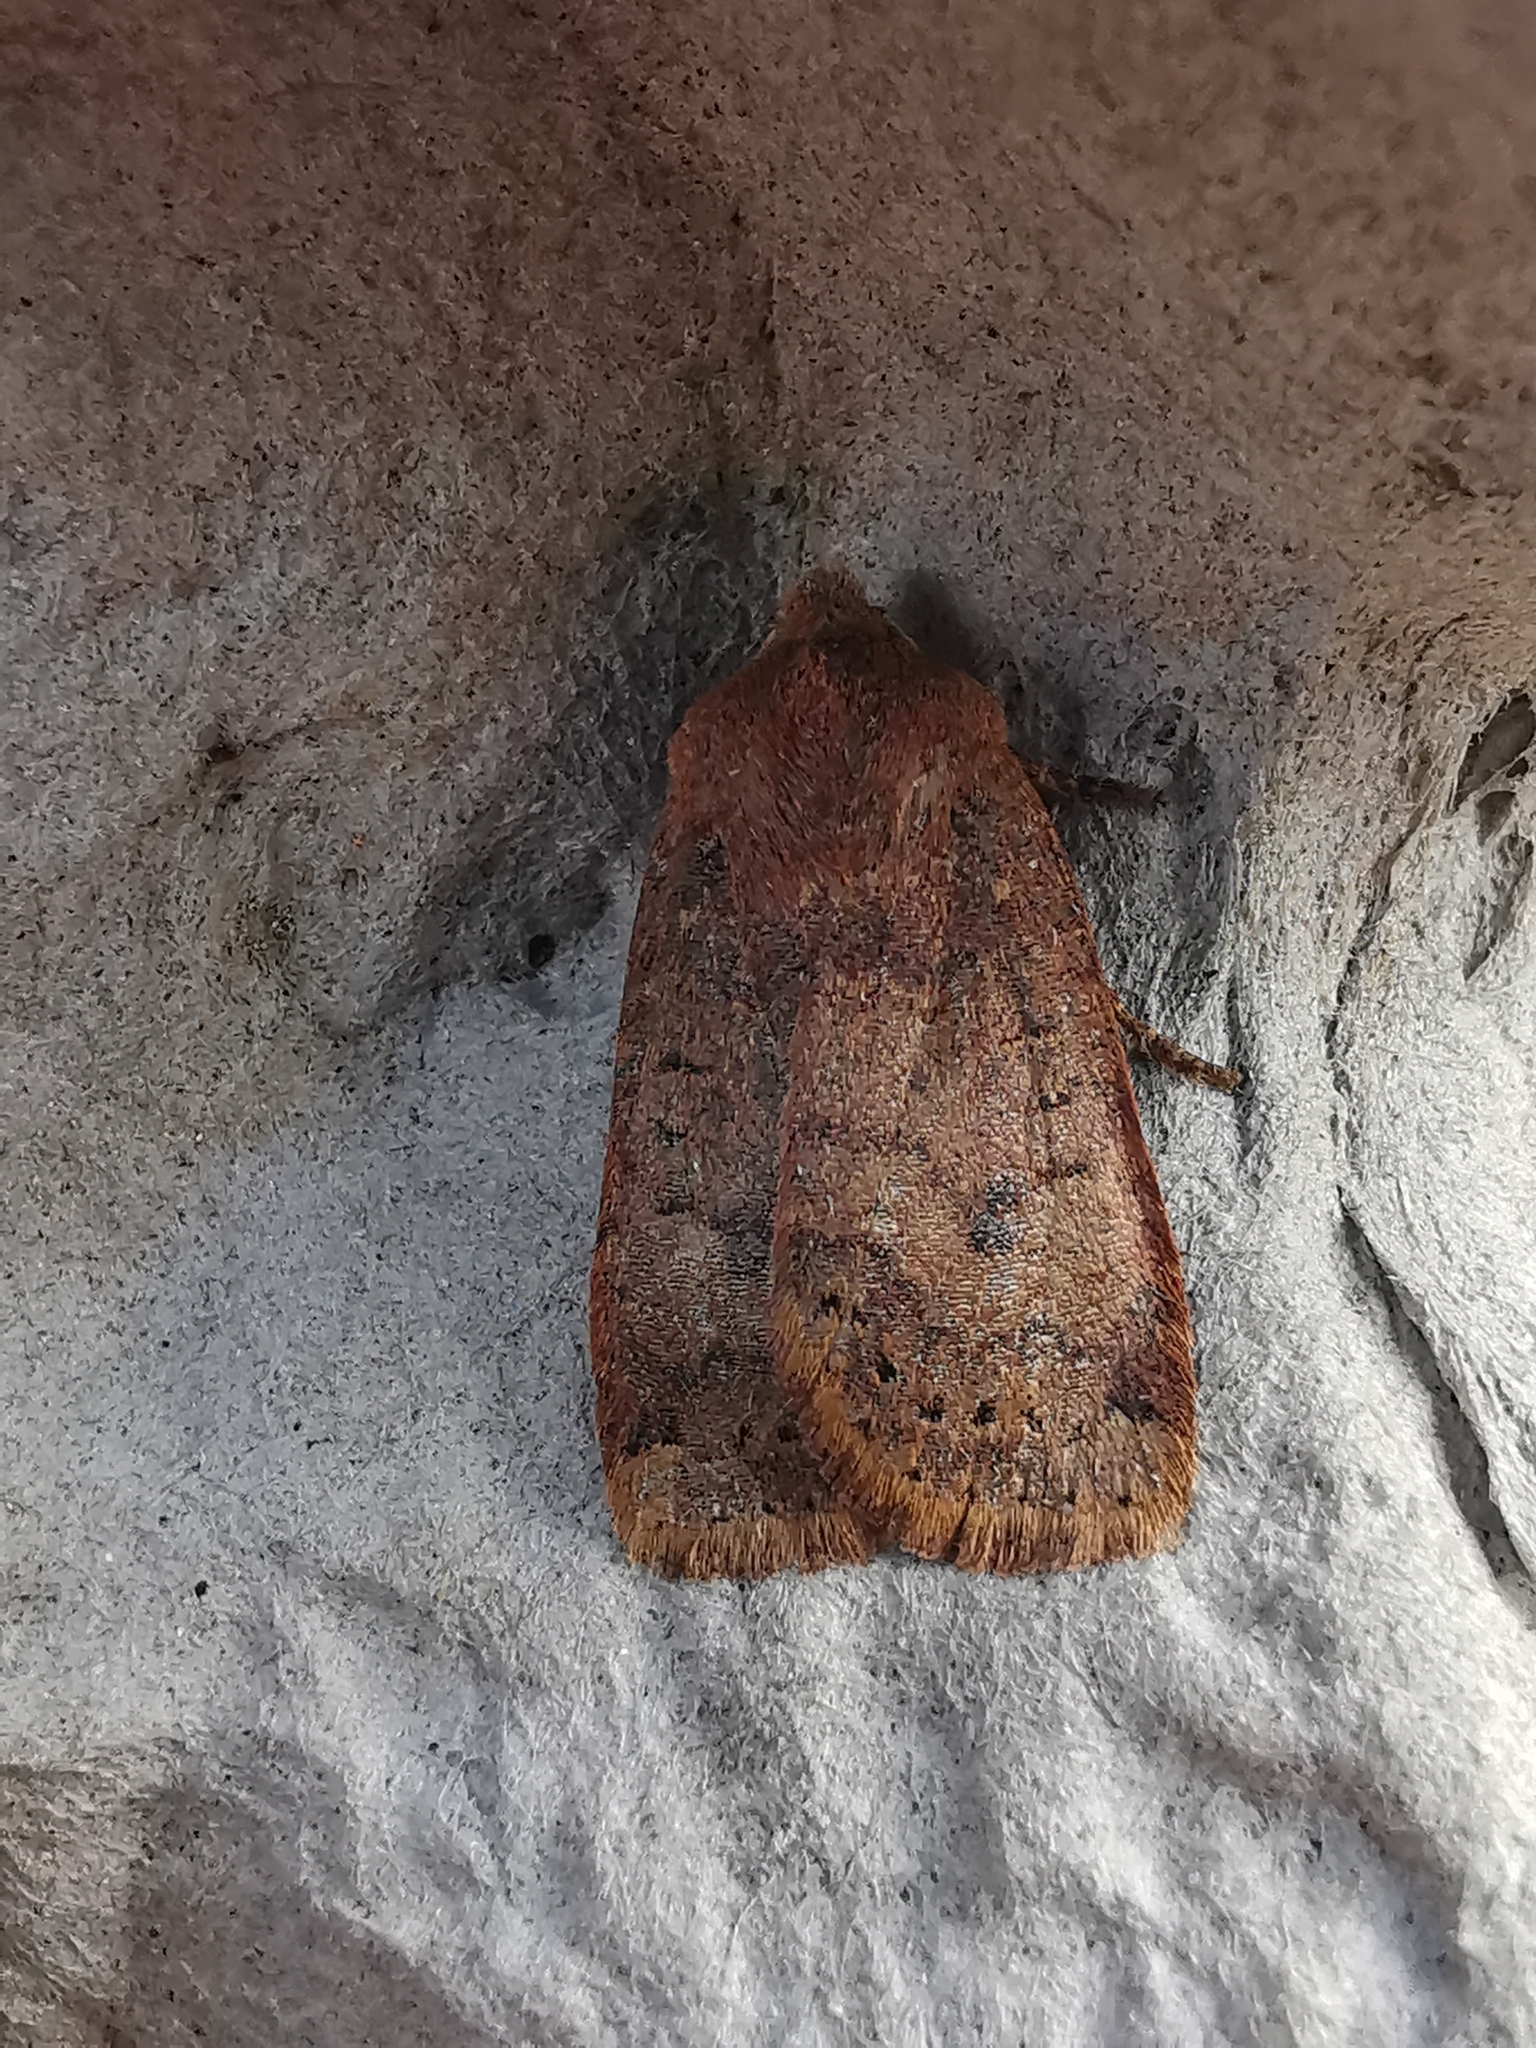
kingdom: Animalia
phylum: Arthropoda
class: Insecta
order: Lepidoptera
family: Noctuidae
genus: Conistra
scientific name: Conistra vaccinii
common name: Chestnut
